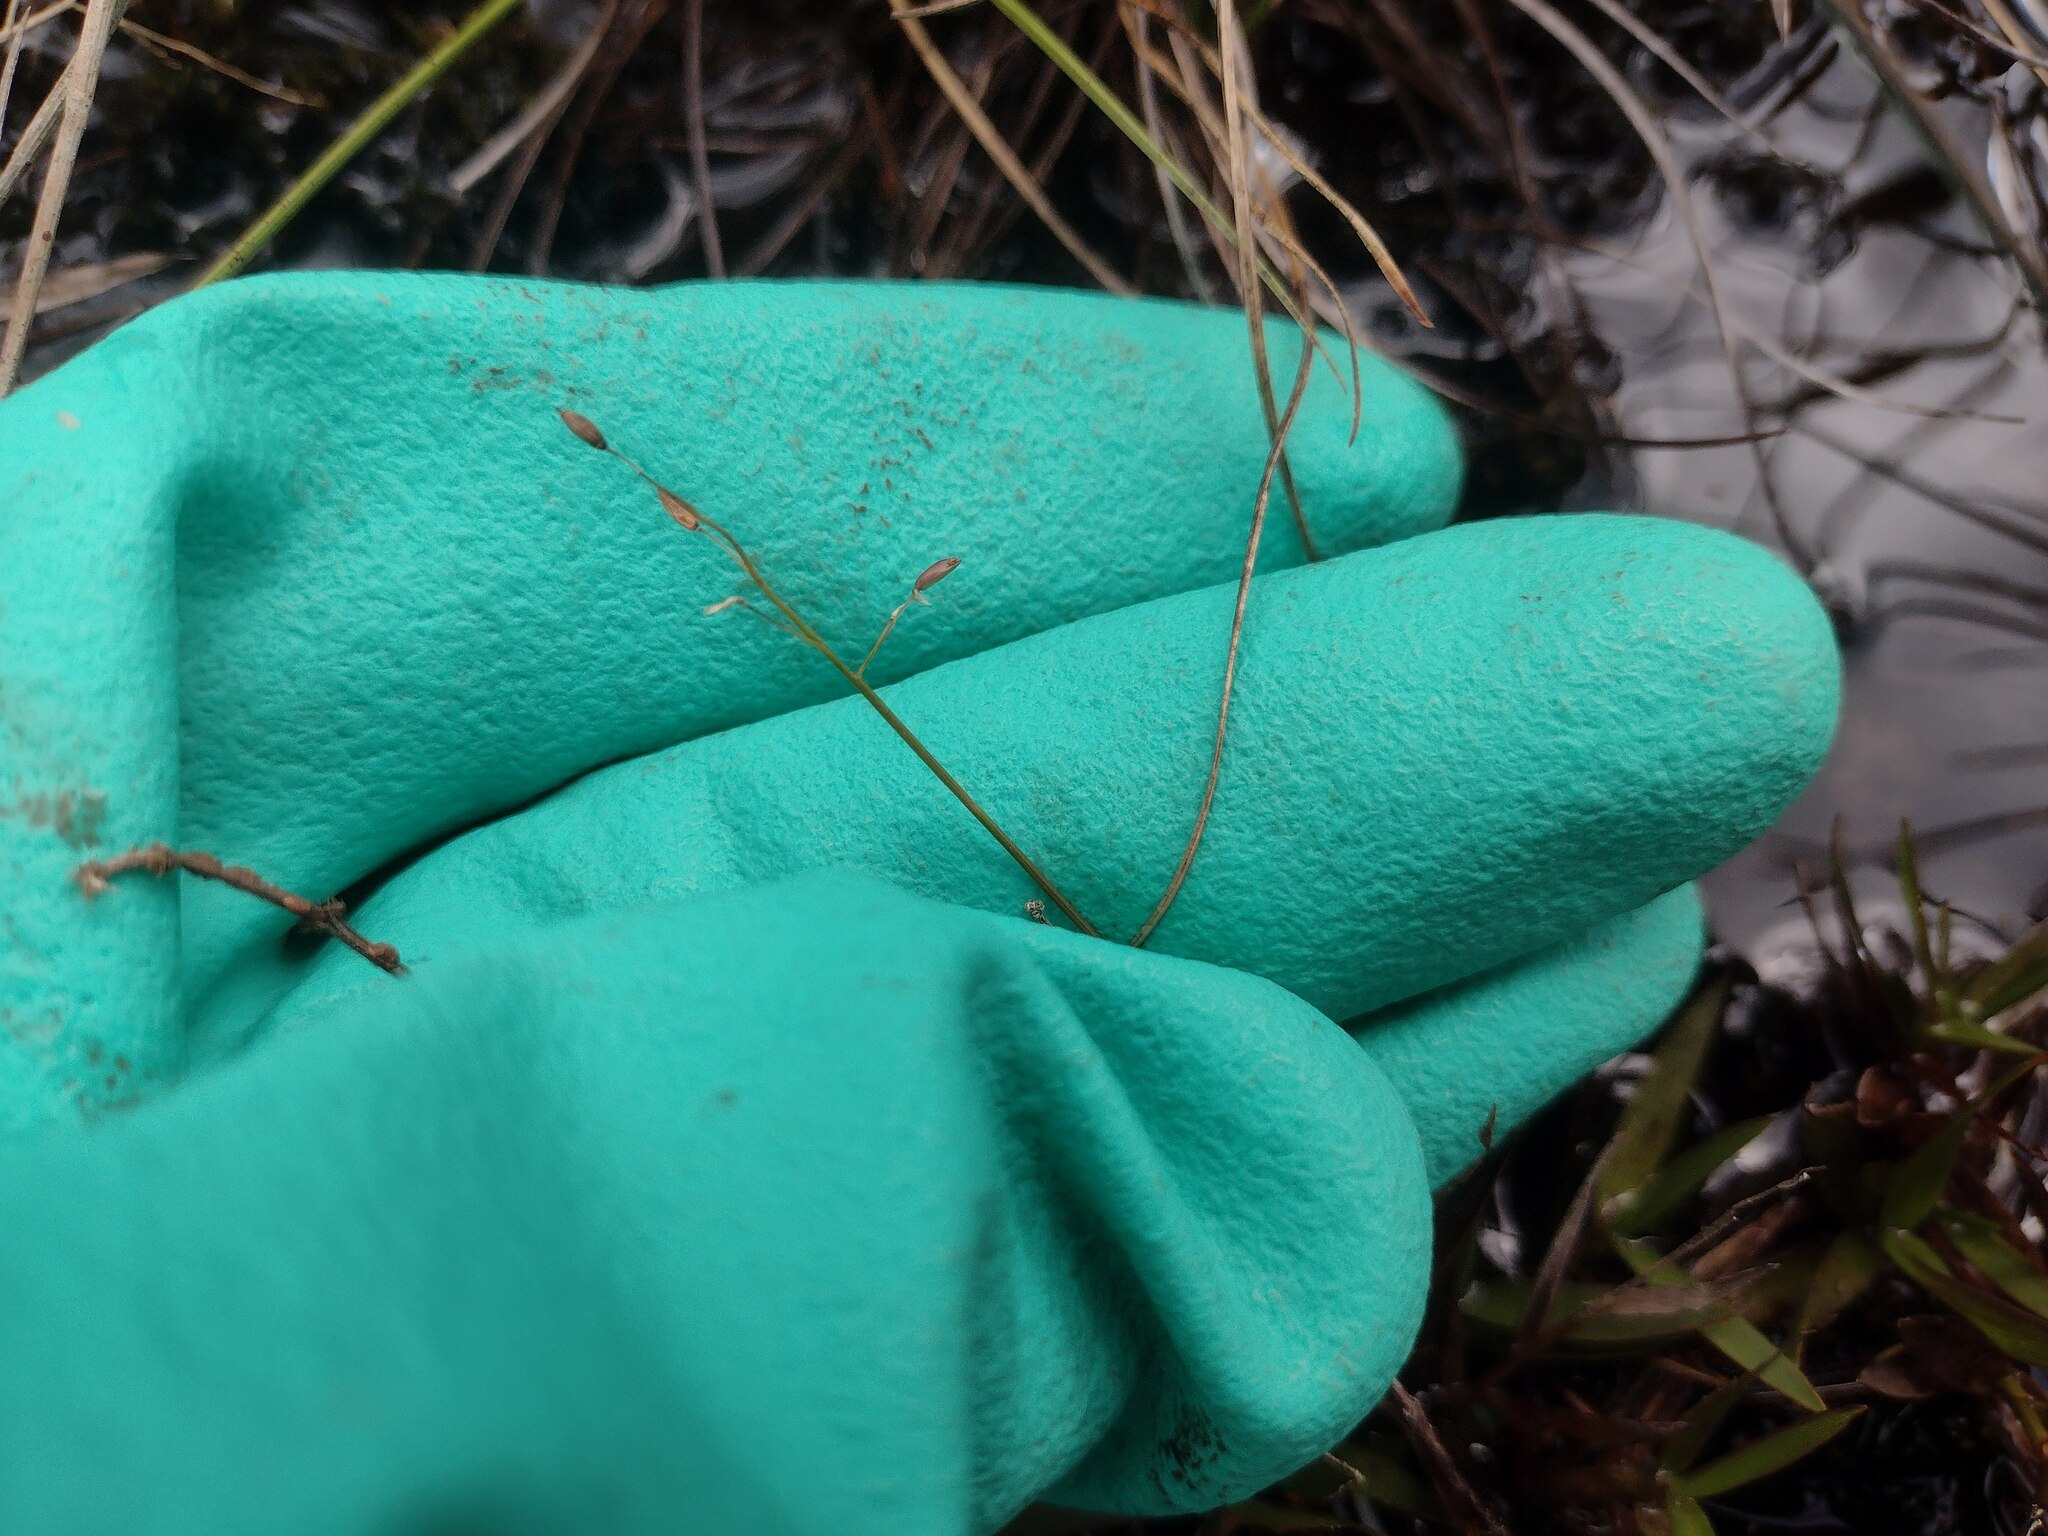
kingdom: Plantae
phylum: Tracheophyta
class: Liliopsida
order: Poales
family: Poaceae
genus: Dichanthelium
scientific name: Dichanthelium cynodon
